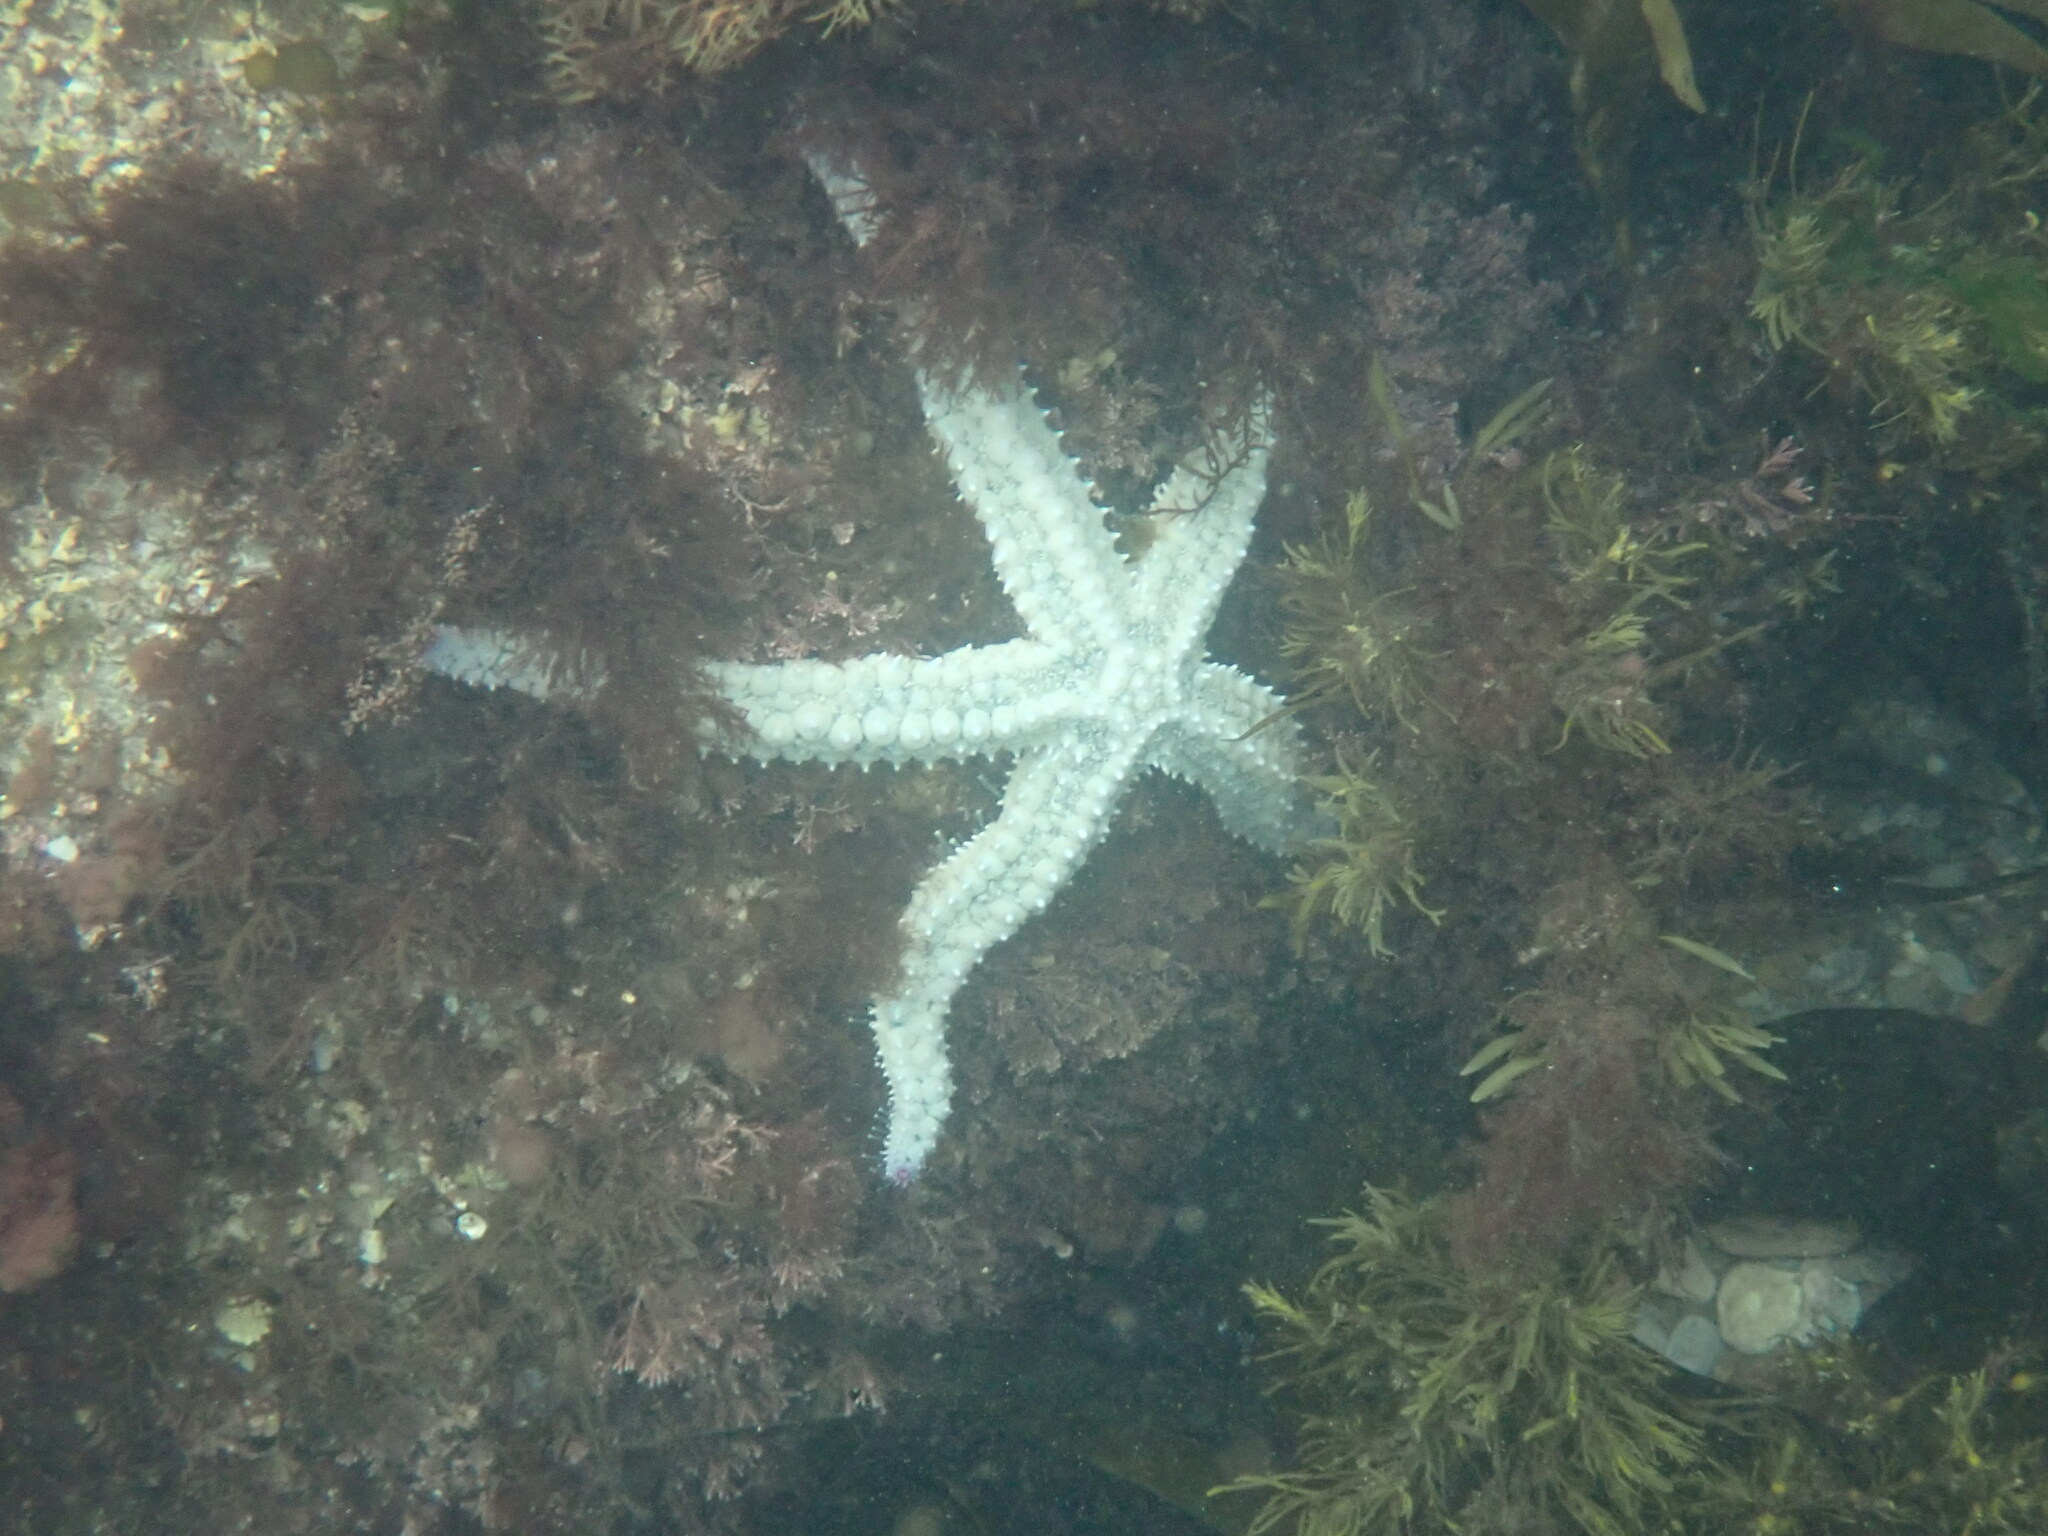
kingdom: Animalia
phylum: Echinodermata
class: Asteroidea
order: Forcipulatida
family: Asteriidae
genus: Marthasterias
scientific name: Marthasterias glacialis
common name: Spiny starfish
